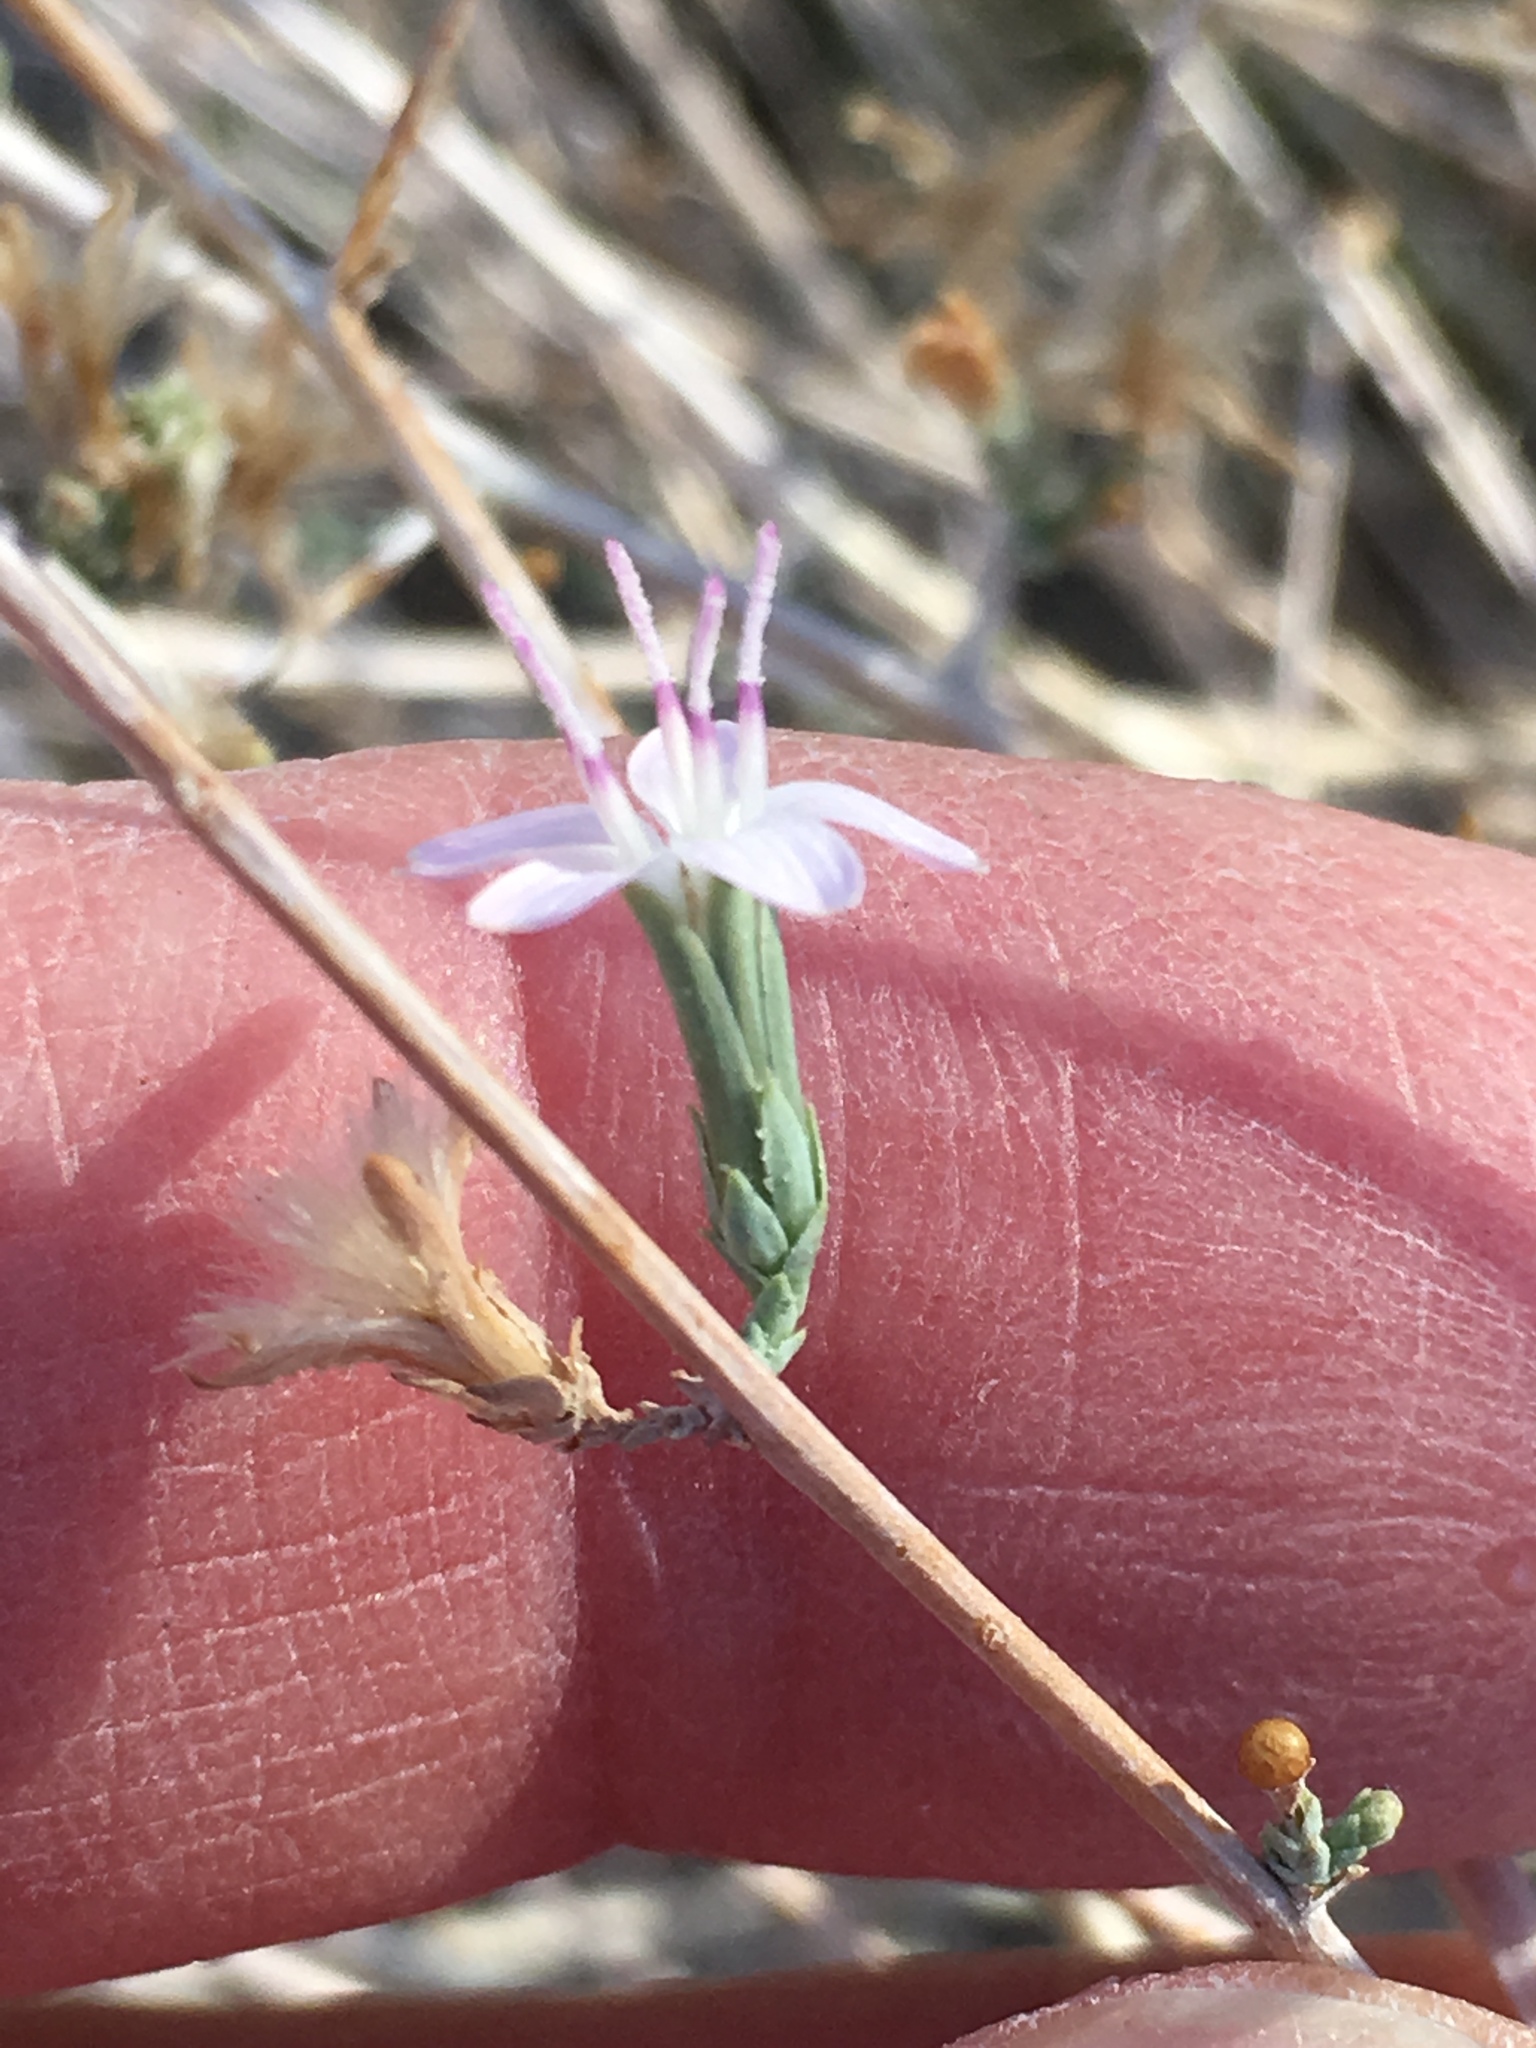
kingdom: Plantae
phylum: Tracheophyta
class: Magnoliopsida
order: Asterales
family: Asteraceae
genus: Stephanomeria
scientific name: Stephanomeria pauciflora
